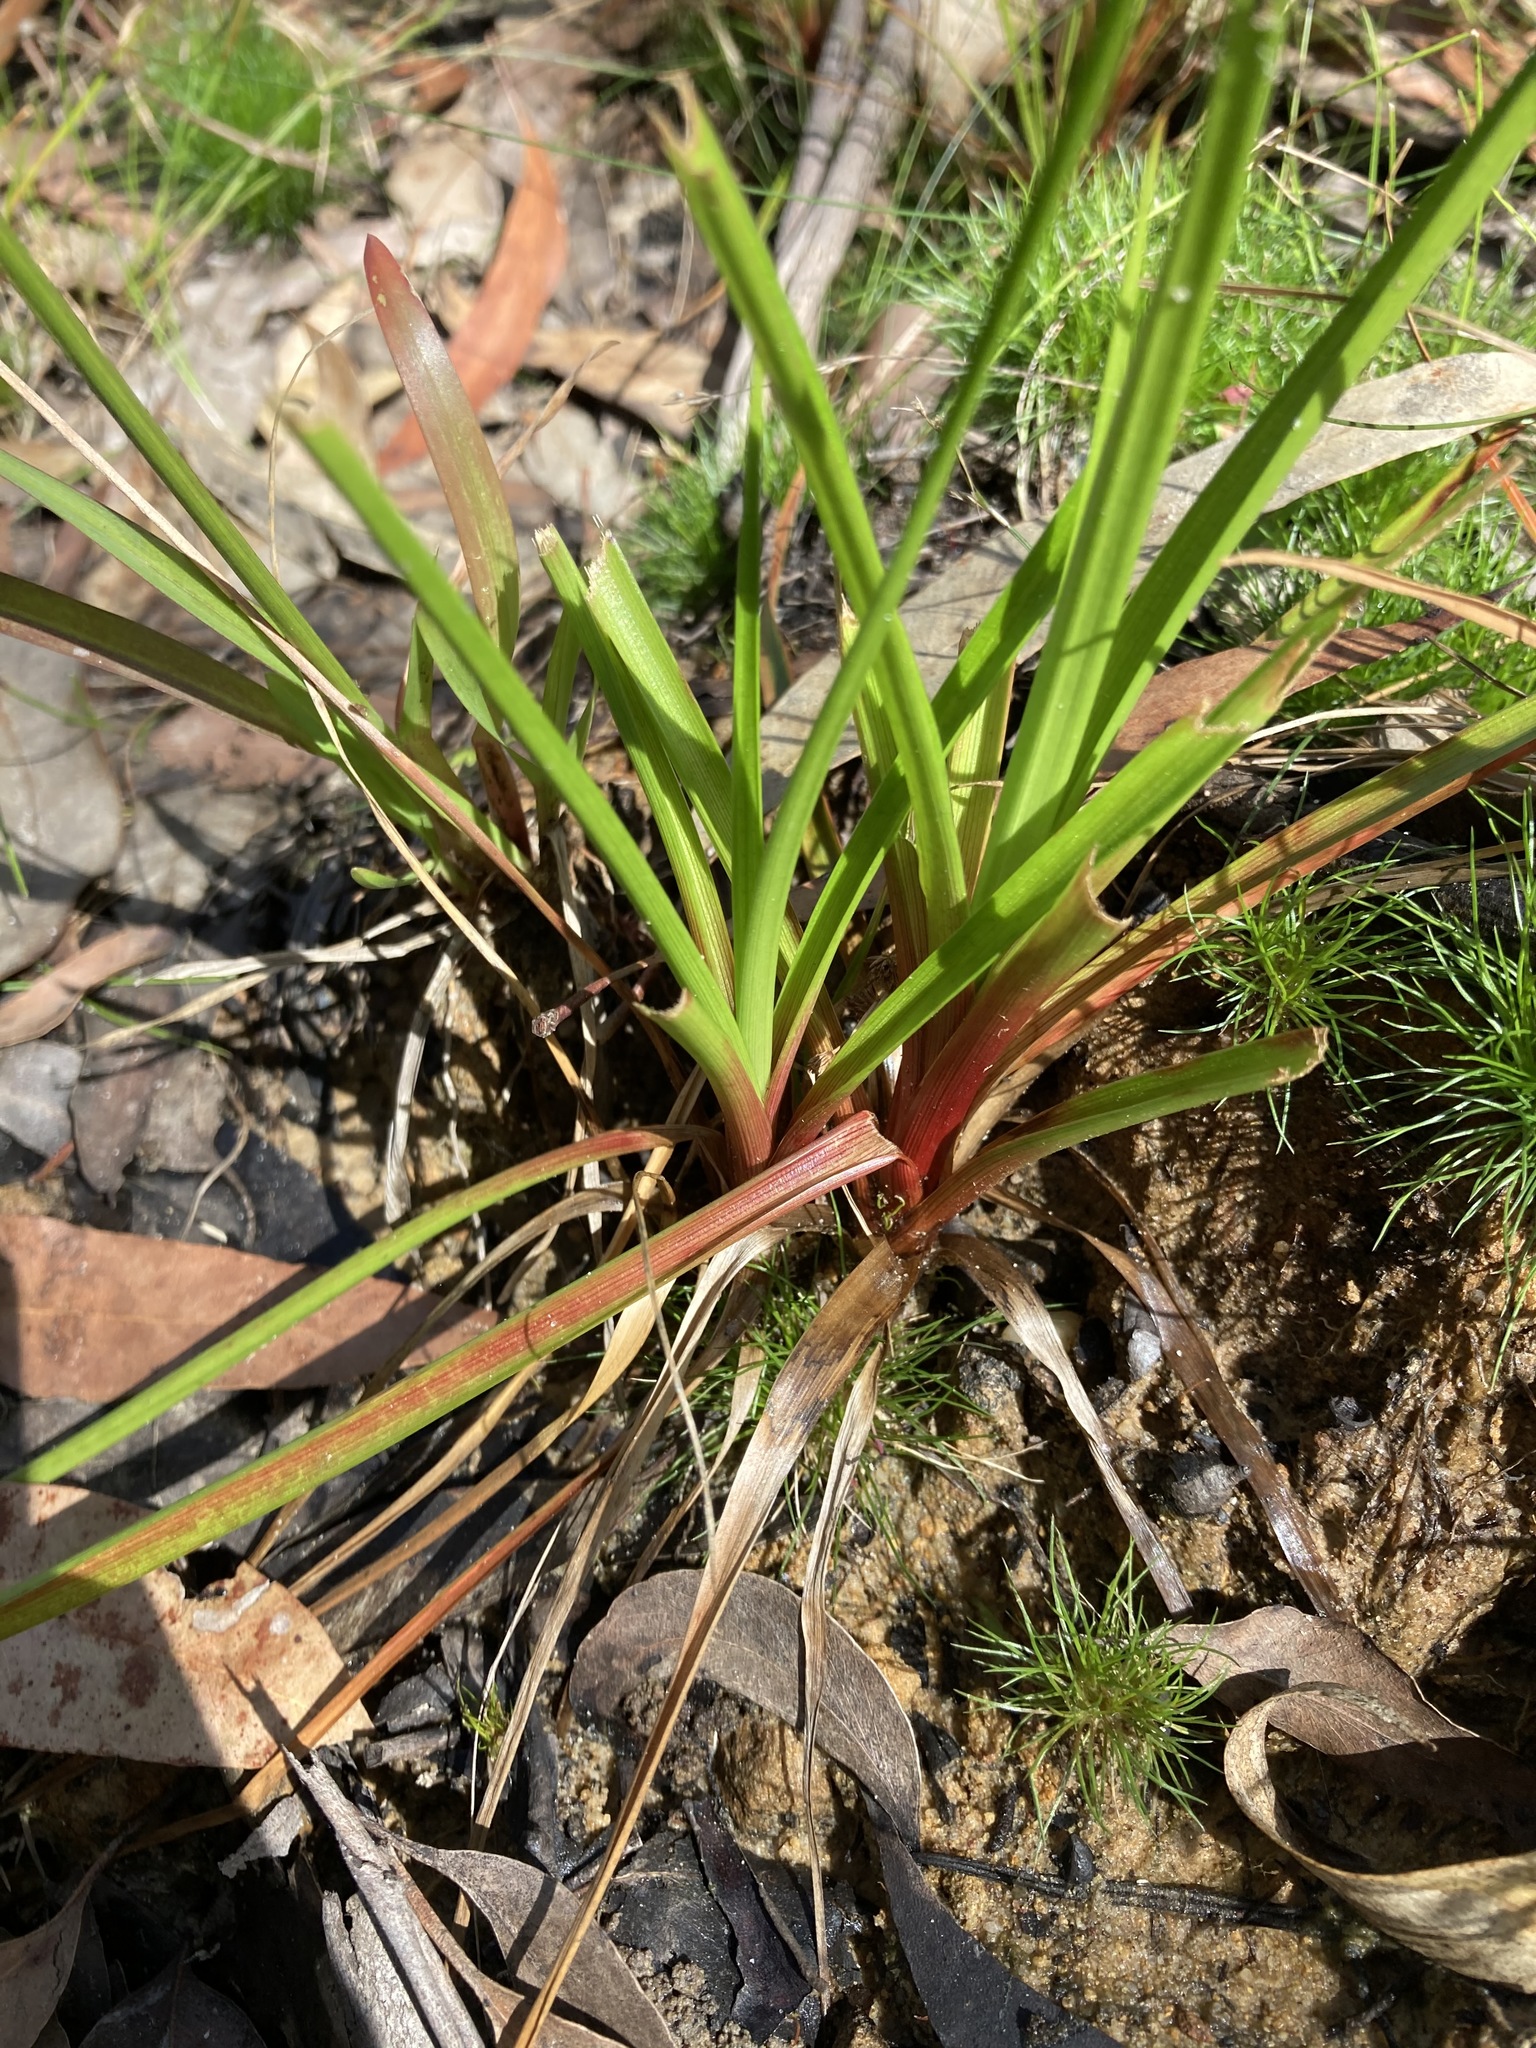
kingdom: Plantae
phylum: Tracheophyta
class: Liliopsida
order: Poales
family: Juncaceae
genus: Juncus
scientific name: Juncus planifolius
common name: Broadleaf rush
